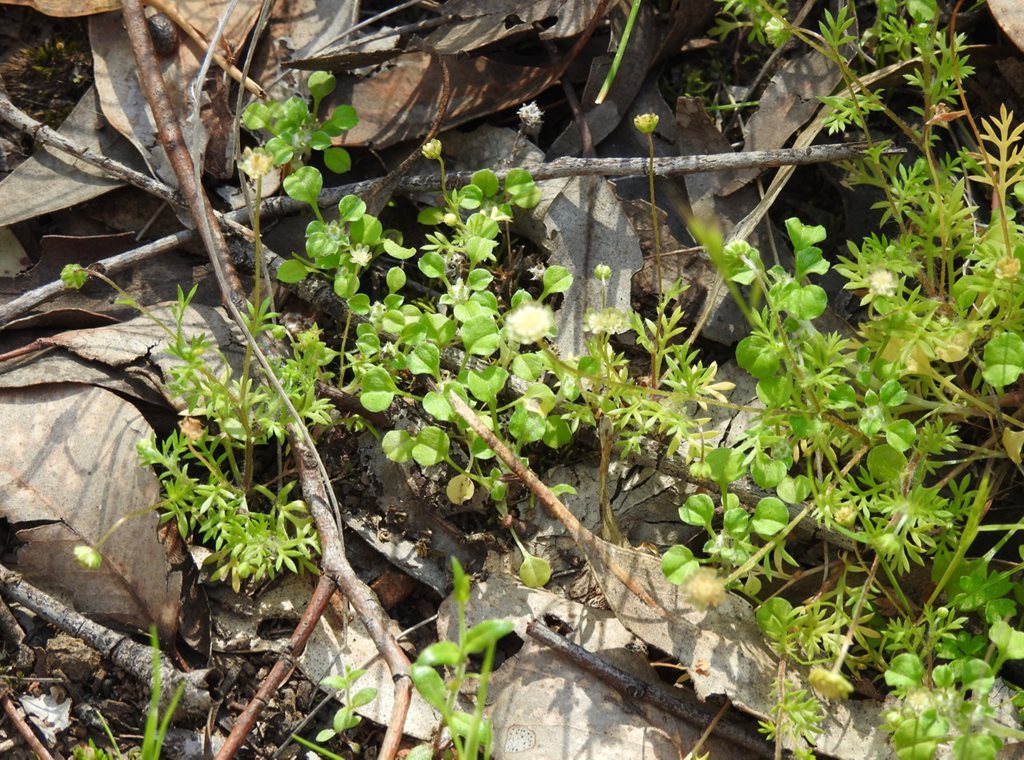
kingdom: Plantae
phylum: Tracheophyta
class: Magnoliopsida
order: Asterales
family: Asteraceae
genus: Cotula
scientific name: Cotula australis
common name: Australian waterbuttons
